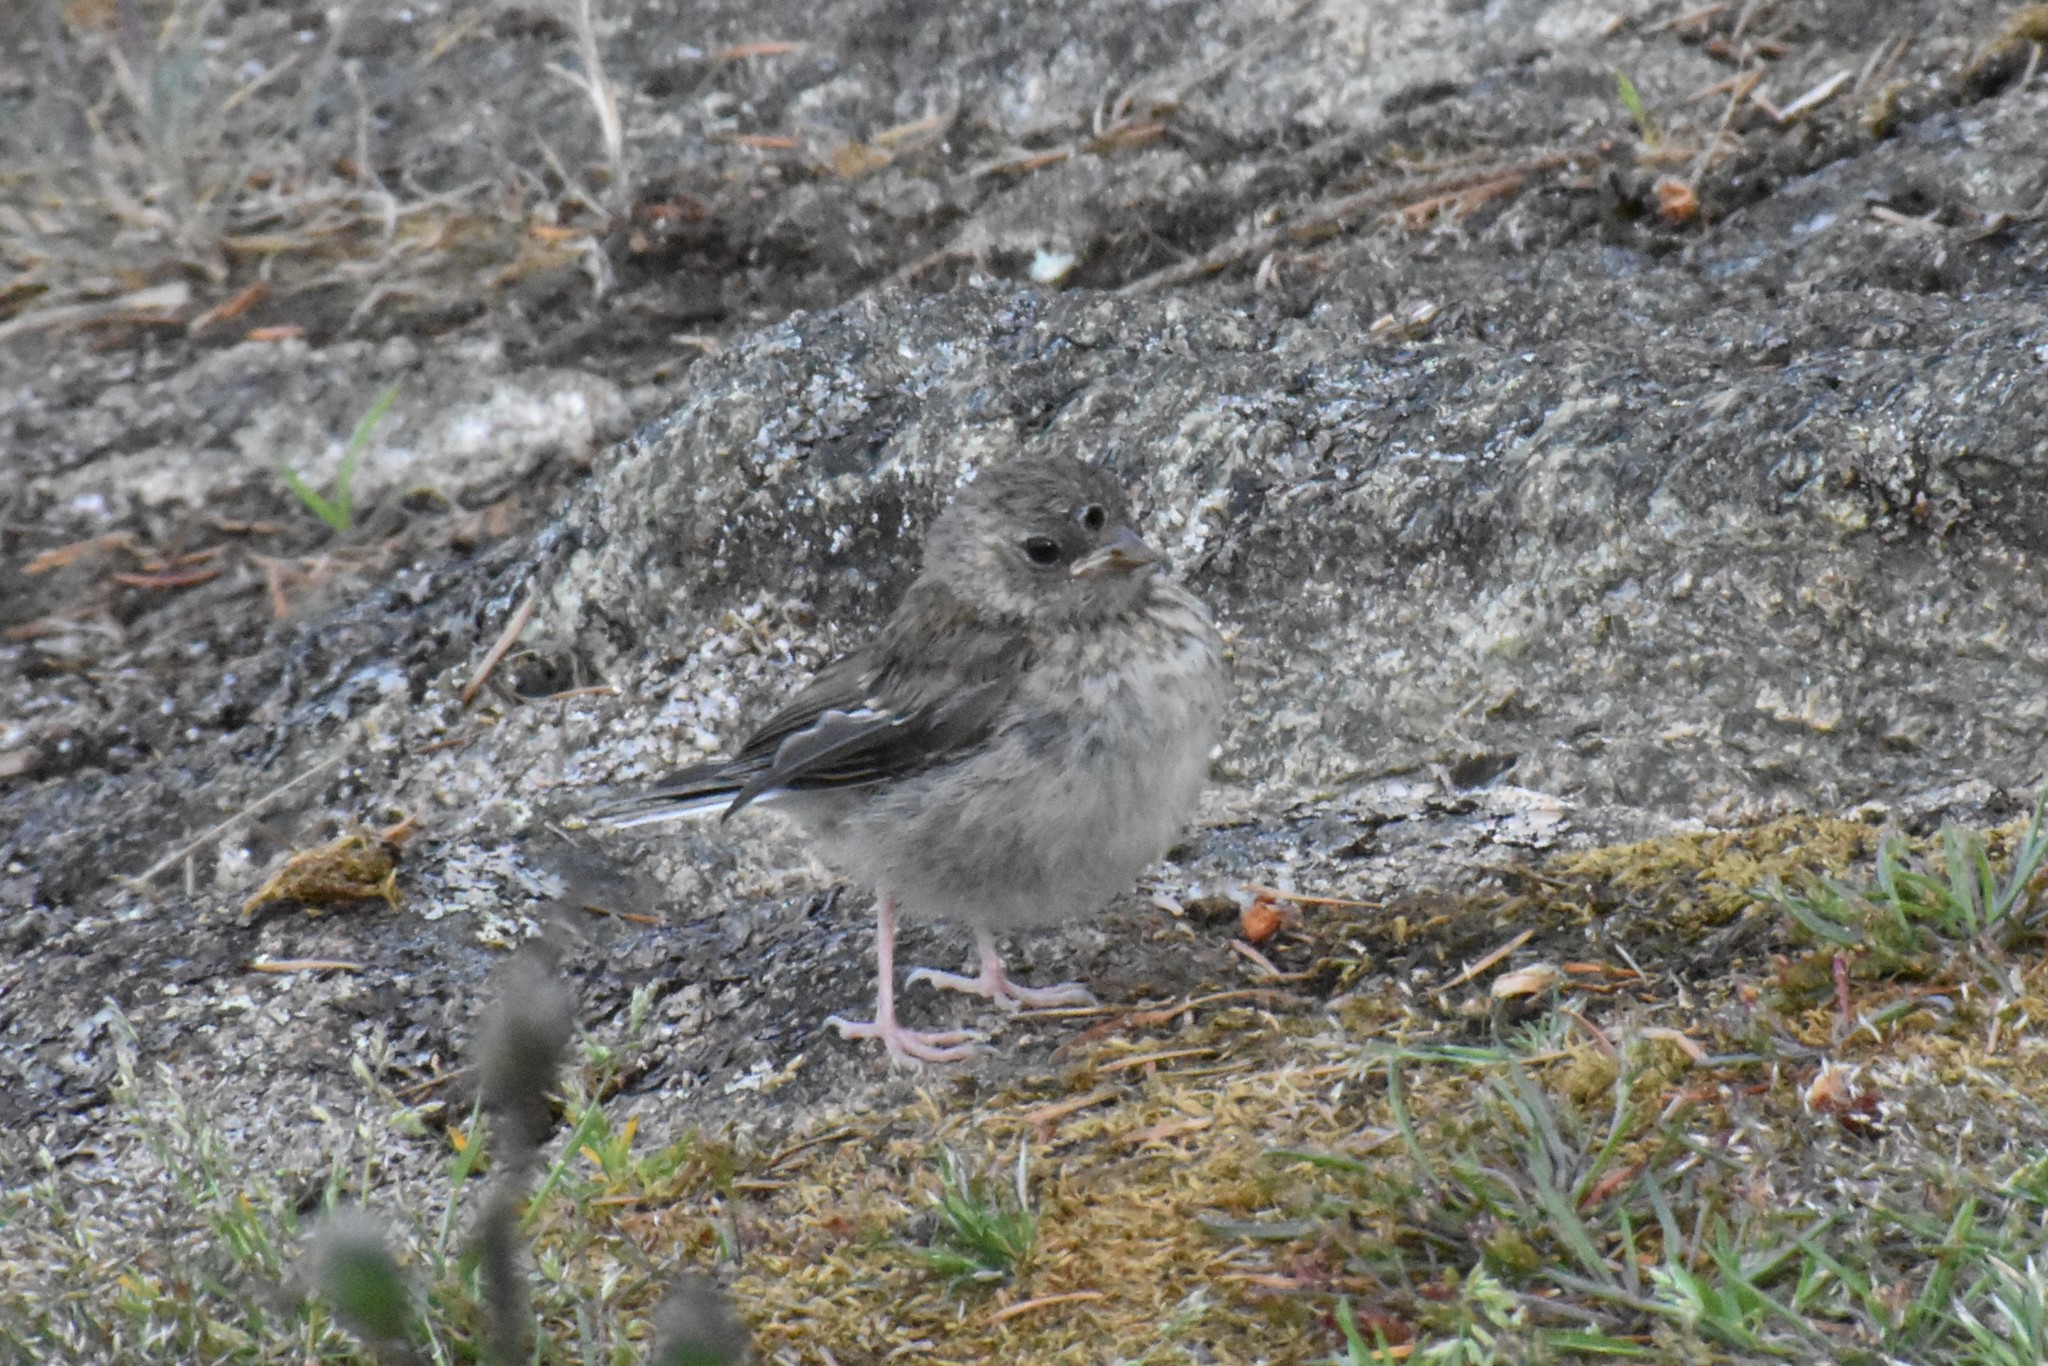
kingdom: Animalia
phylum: Chordata
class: Aves
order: Passeriformes
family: Passerellidae
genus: Junco
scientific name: Junco hyemalis
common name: Dark-eyed junco
